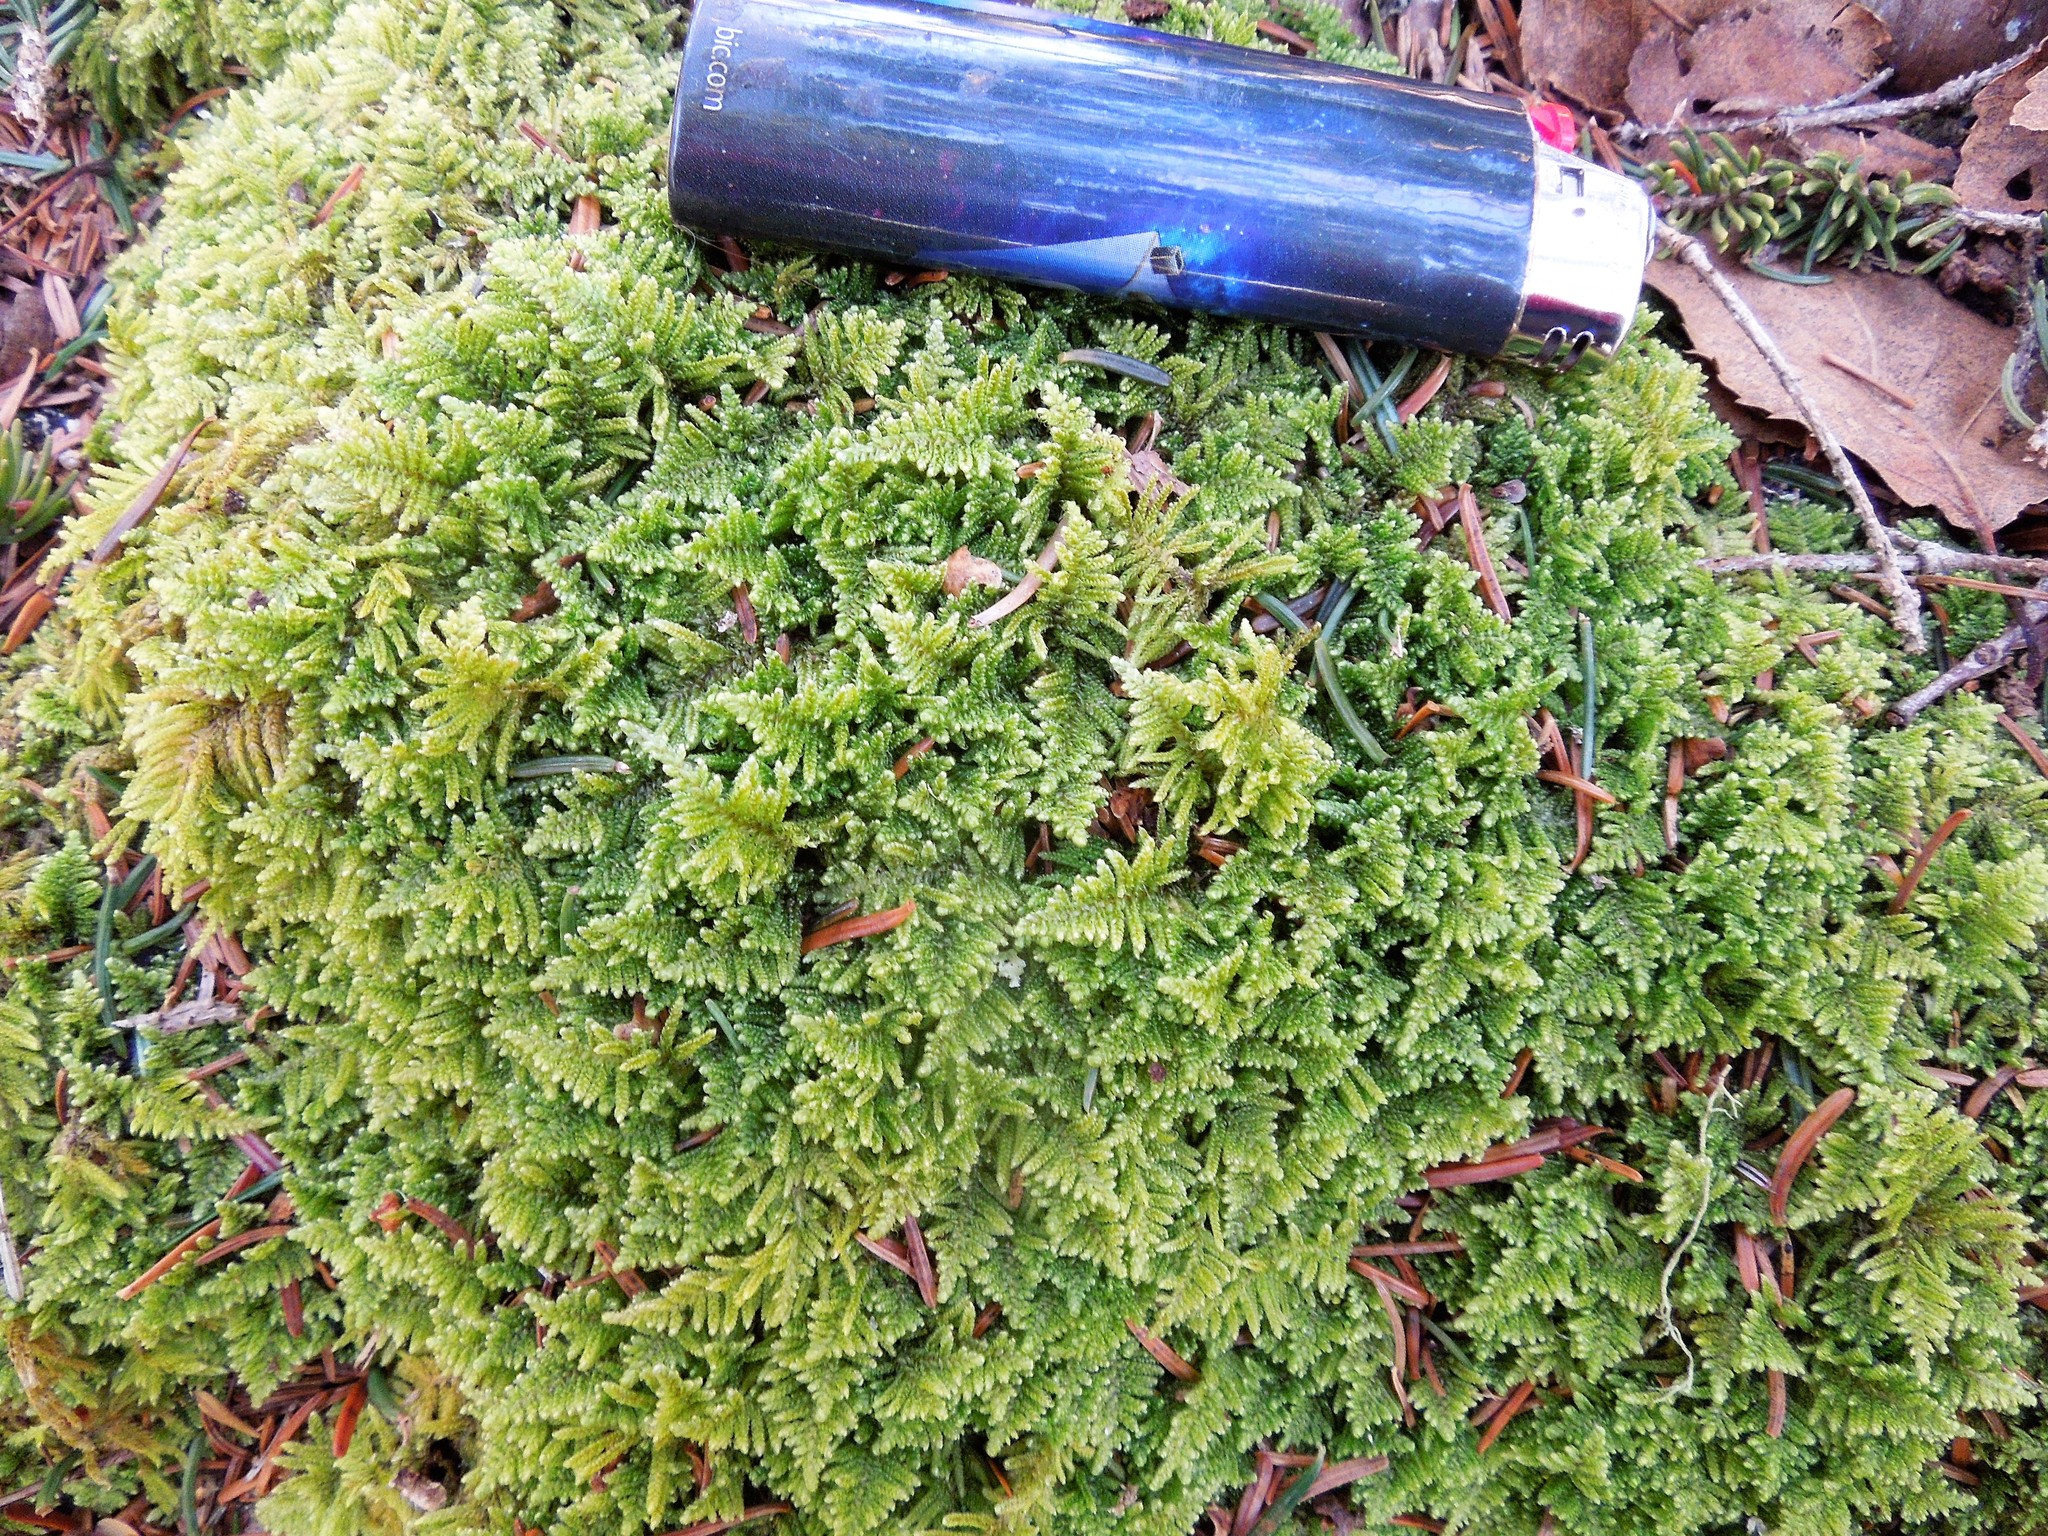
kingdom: Plantae
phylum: Bryophyta
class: Bryopsida
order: Hypnales
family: Callicladiaceae
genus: Callicladium
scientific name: Callicladium imponens
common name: Brocade moss
